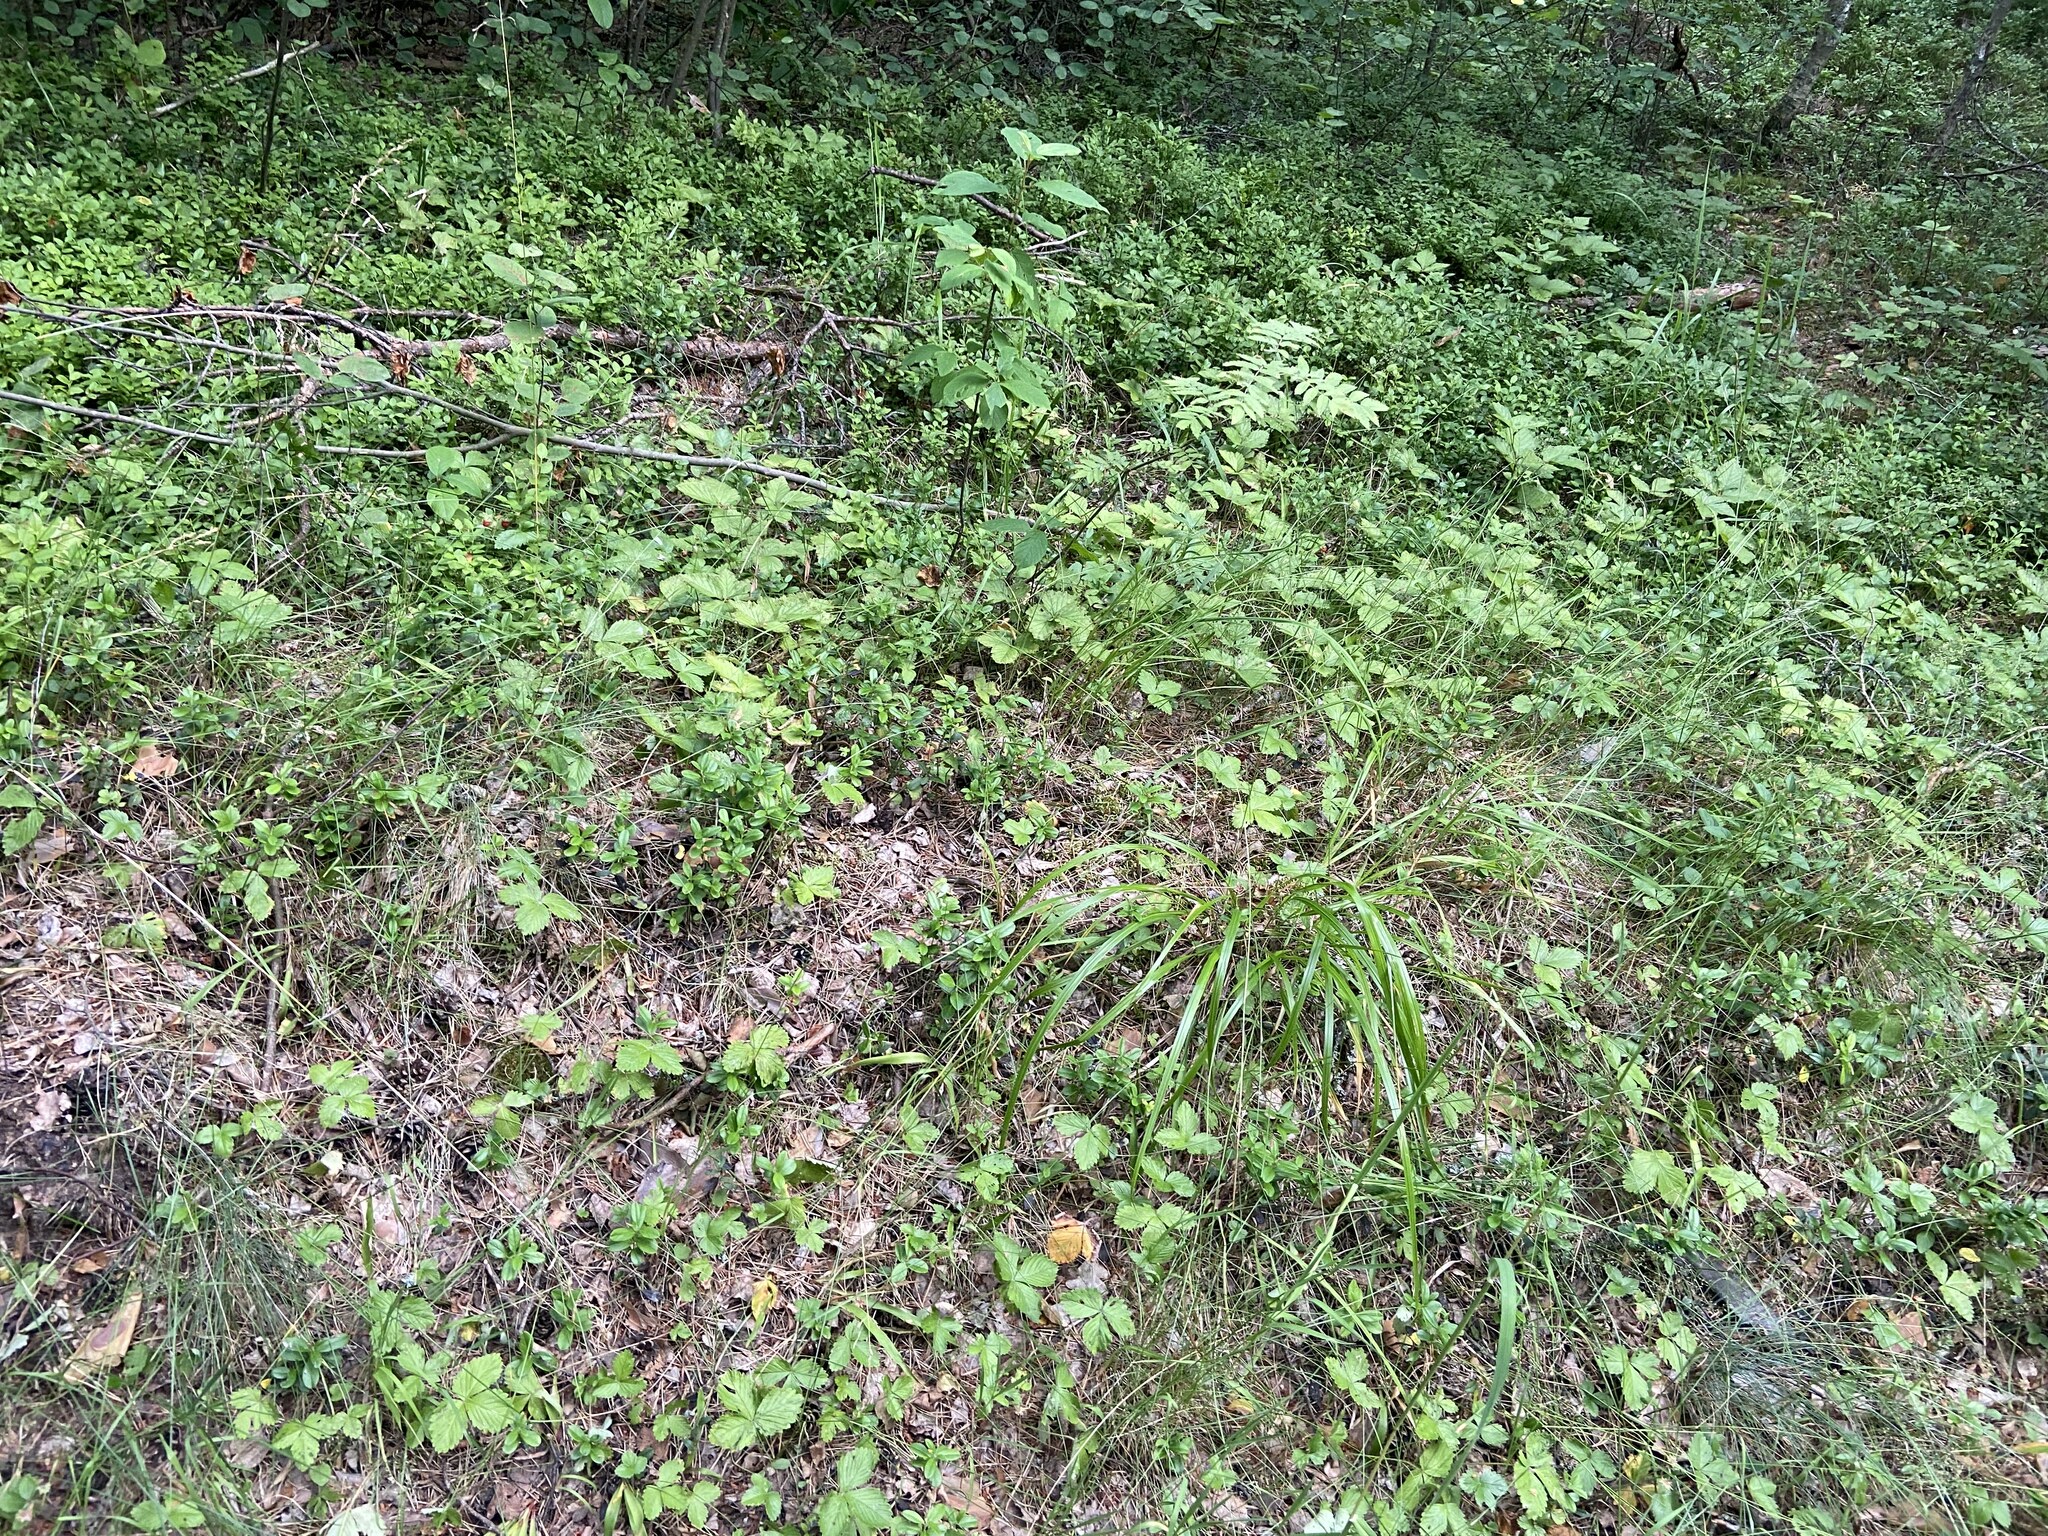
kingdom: Plantae
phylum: Tracheophyta
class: Liliopsida
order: Poales
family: Poaceae
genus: Calamagrostis
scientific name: Calamagrostis arundinacea
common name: Metskastik
